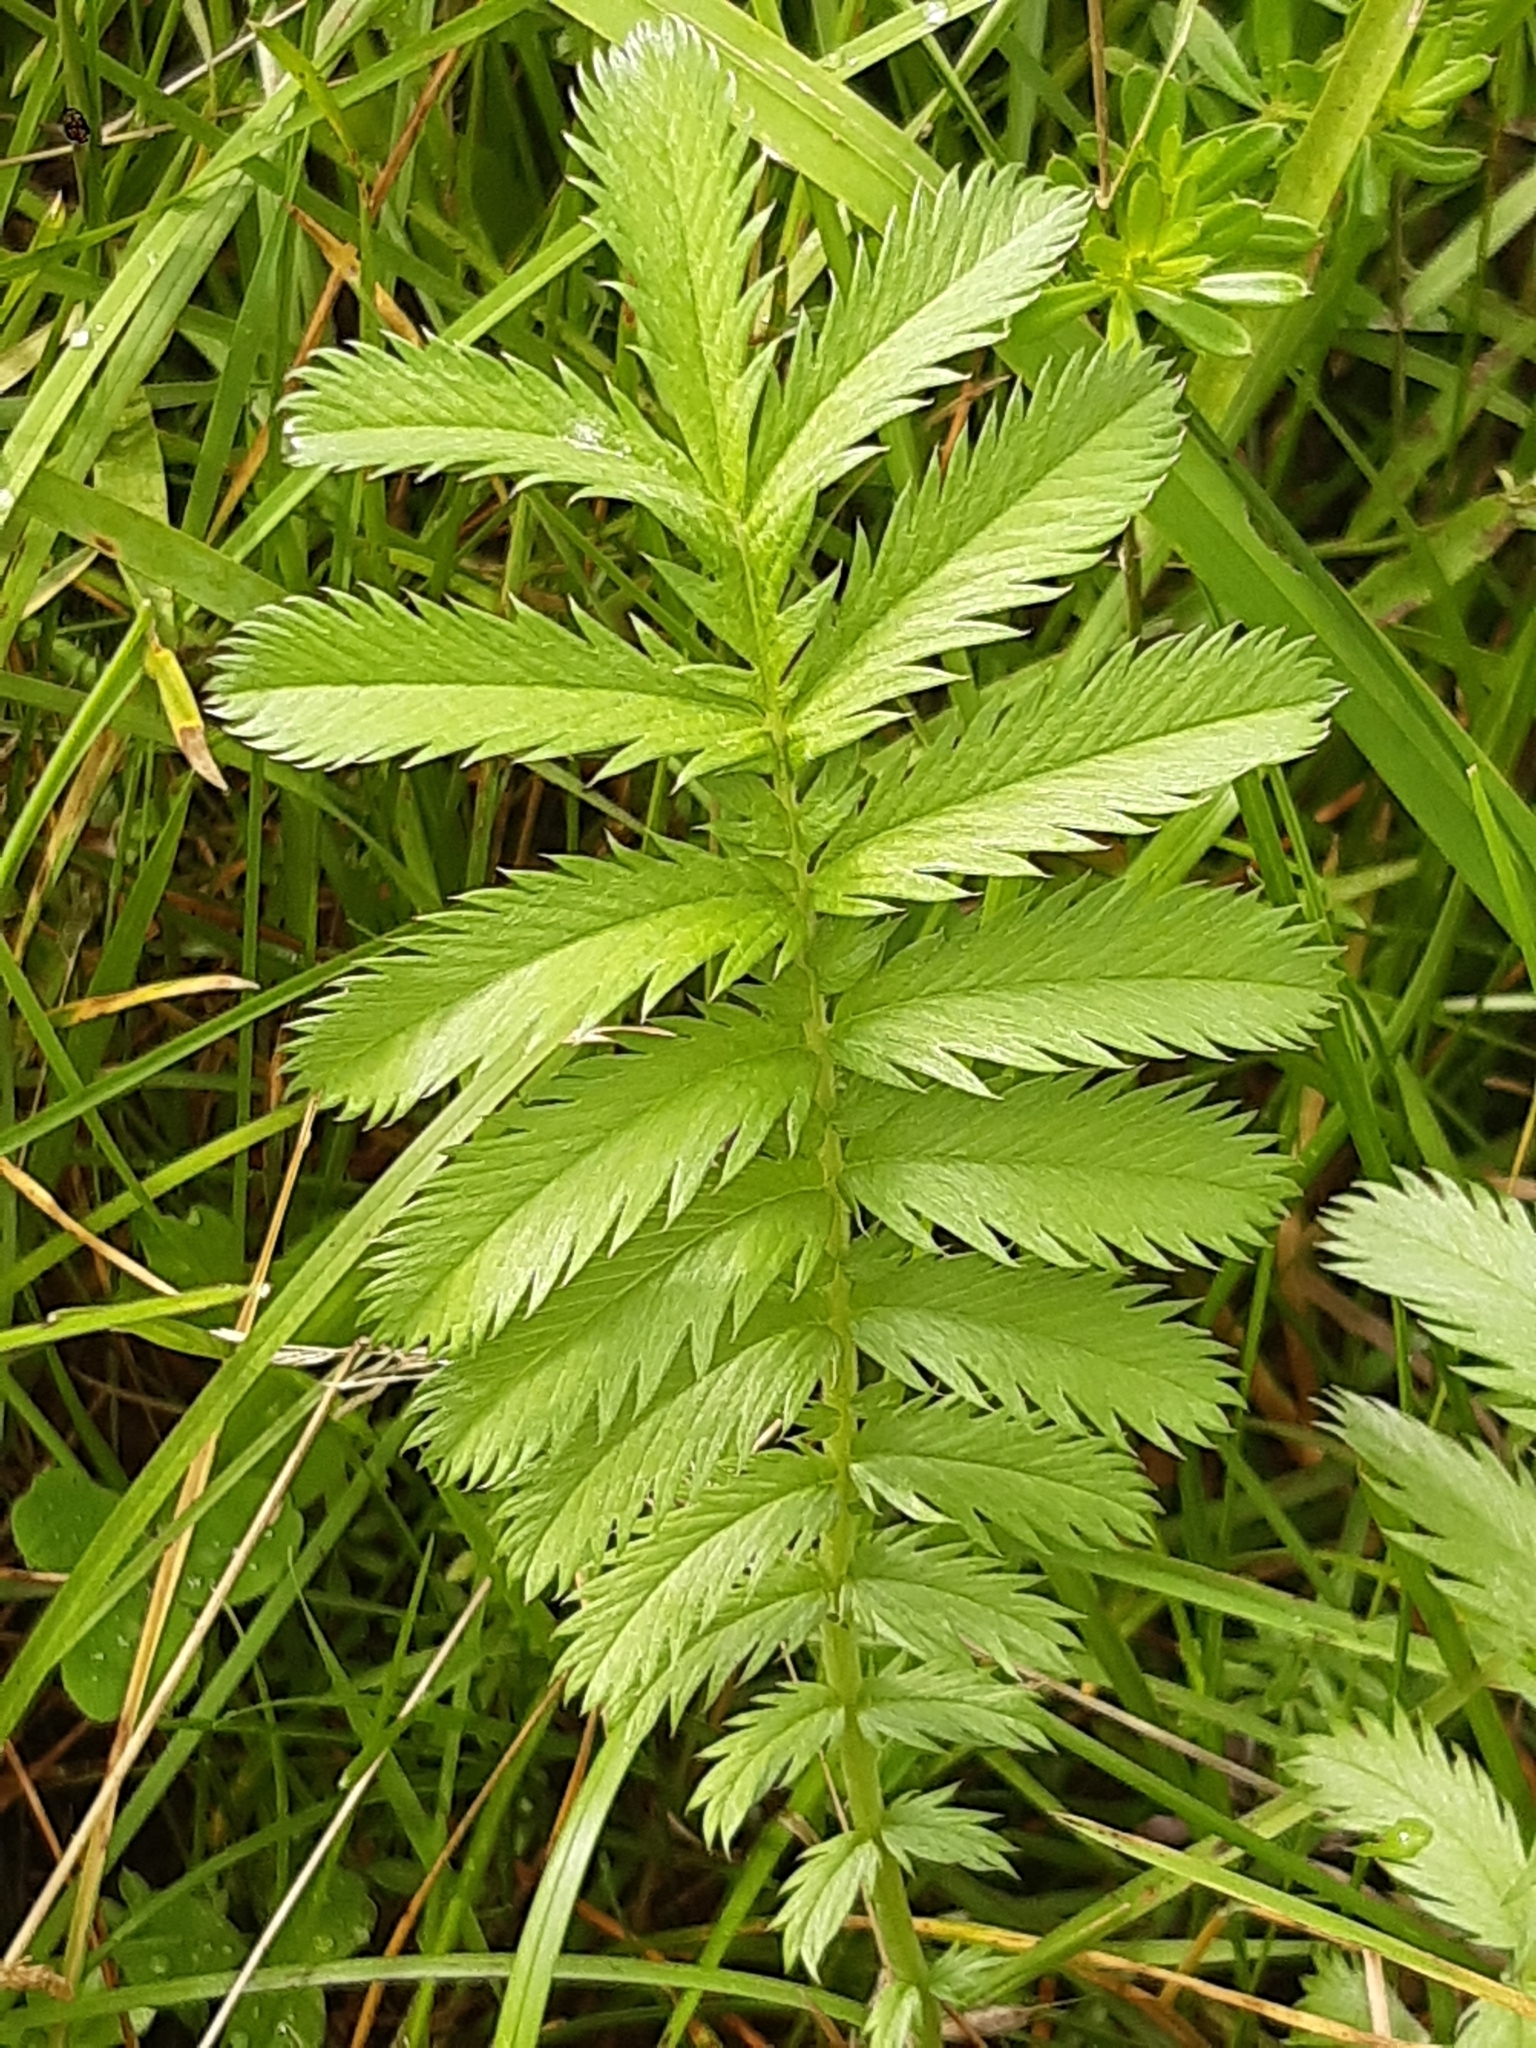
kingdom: Plantae
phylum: Tracheophyta
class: Magnoliopsida
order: Rosales
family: Rosaceae
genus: Argentina
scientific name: Argentina anserina
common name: Common silverweed
